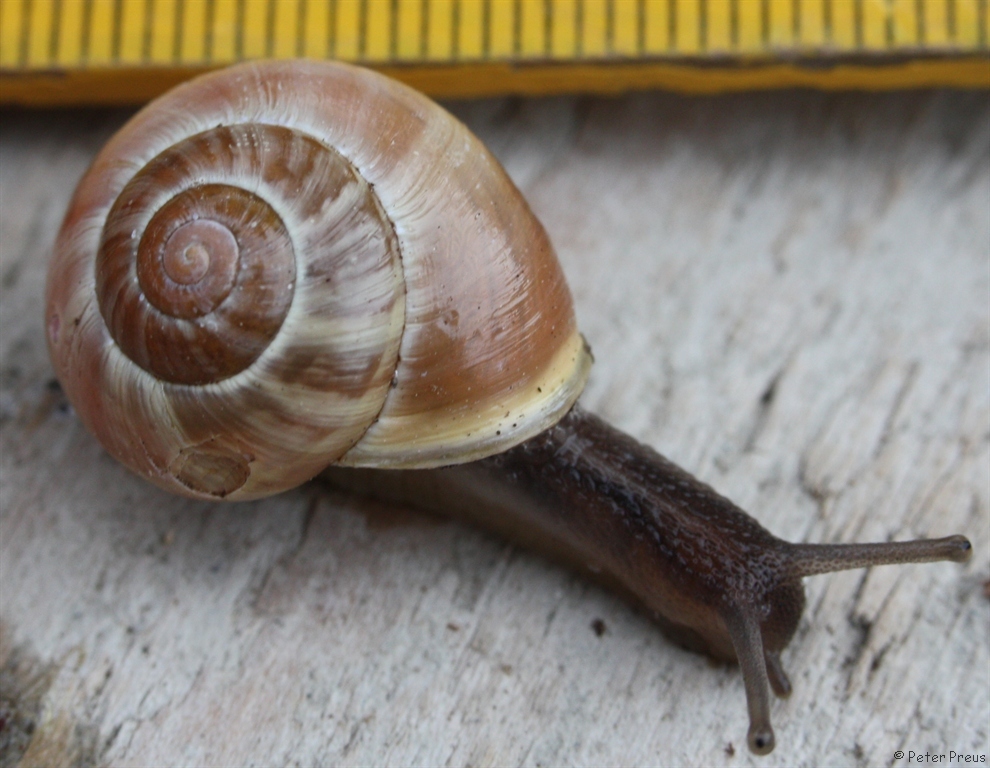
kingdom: Animalia
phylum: Mollusca
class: Gastropoda
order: Stylommatophora
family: Helicidae
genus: Cepaea
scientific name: Cepaea hortensis
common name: White-lip gardensnail
